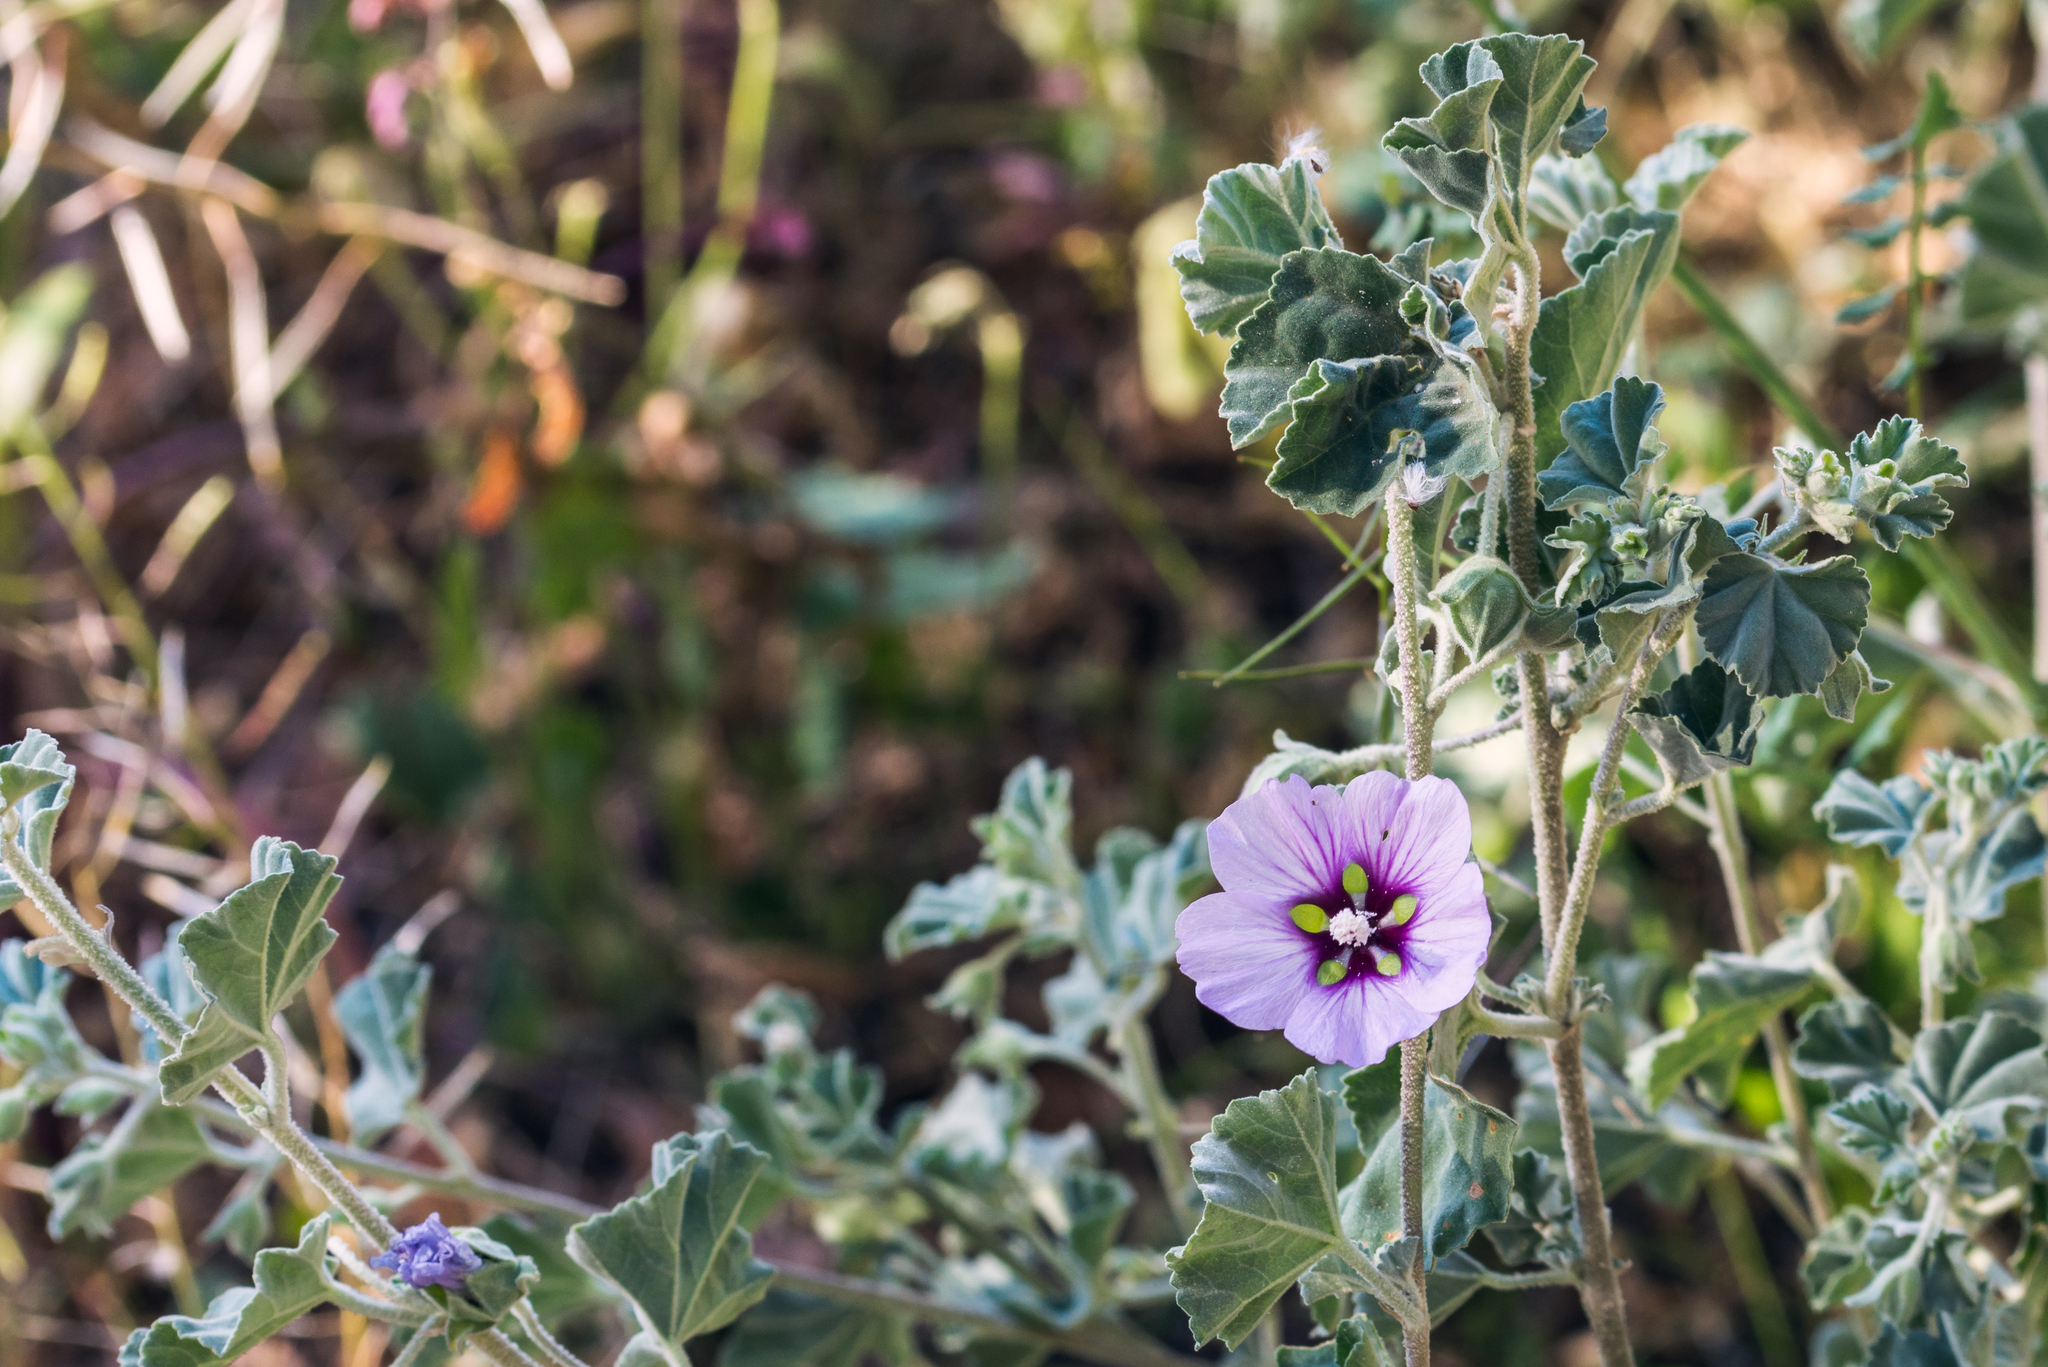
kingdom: Plantae
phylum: Tracheophyta
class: Magnoliopsida
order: Malvales
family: Malvaceae
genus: Malva
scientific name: Malva subovata
